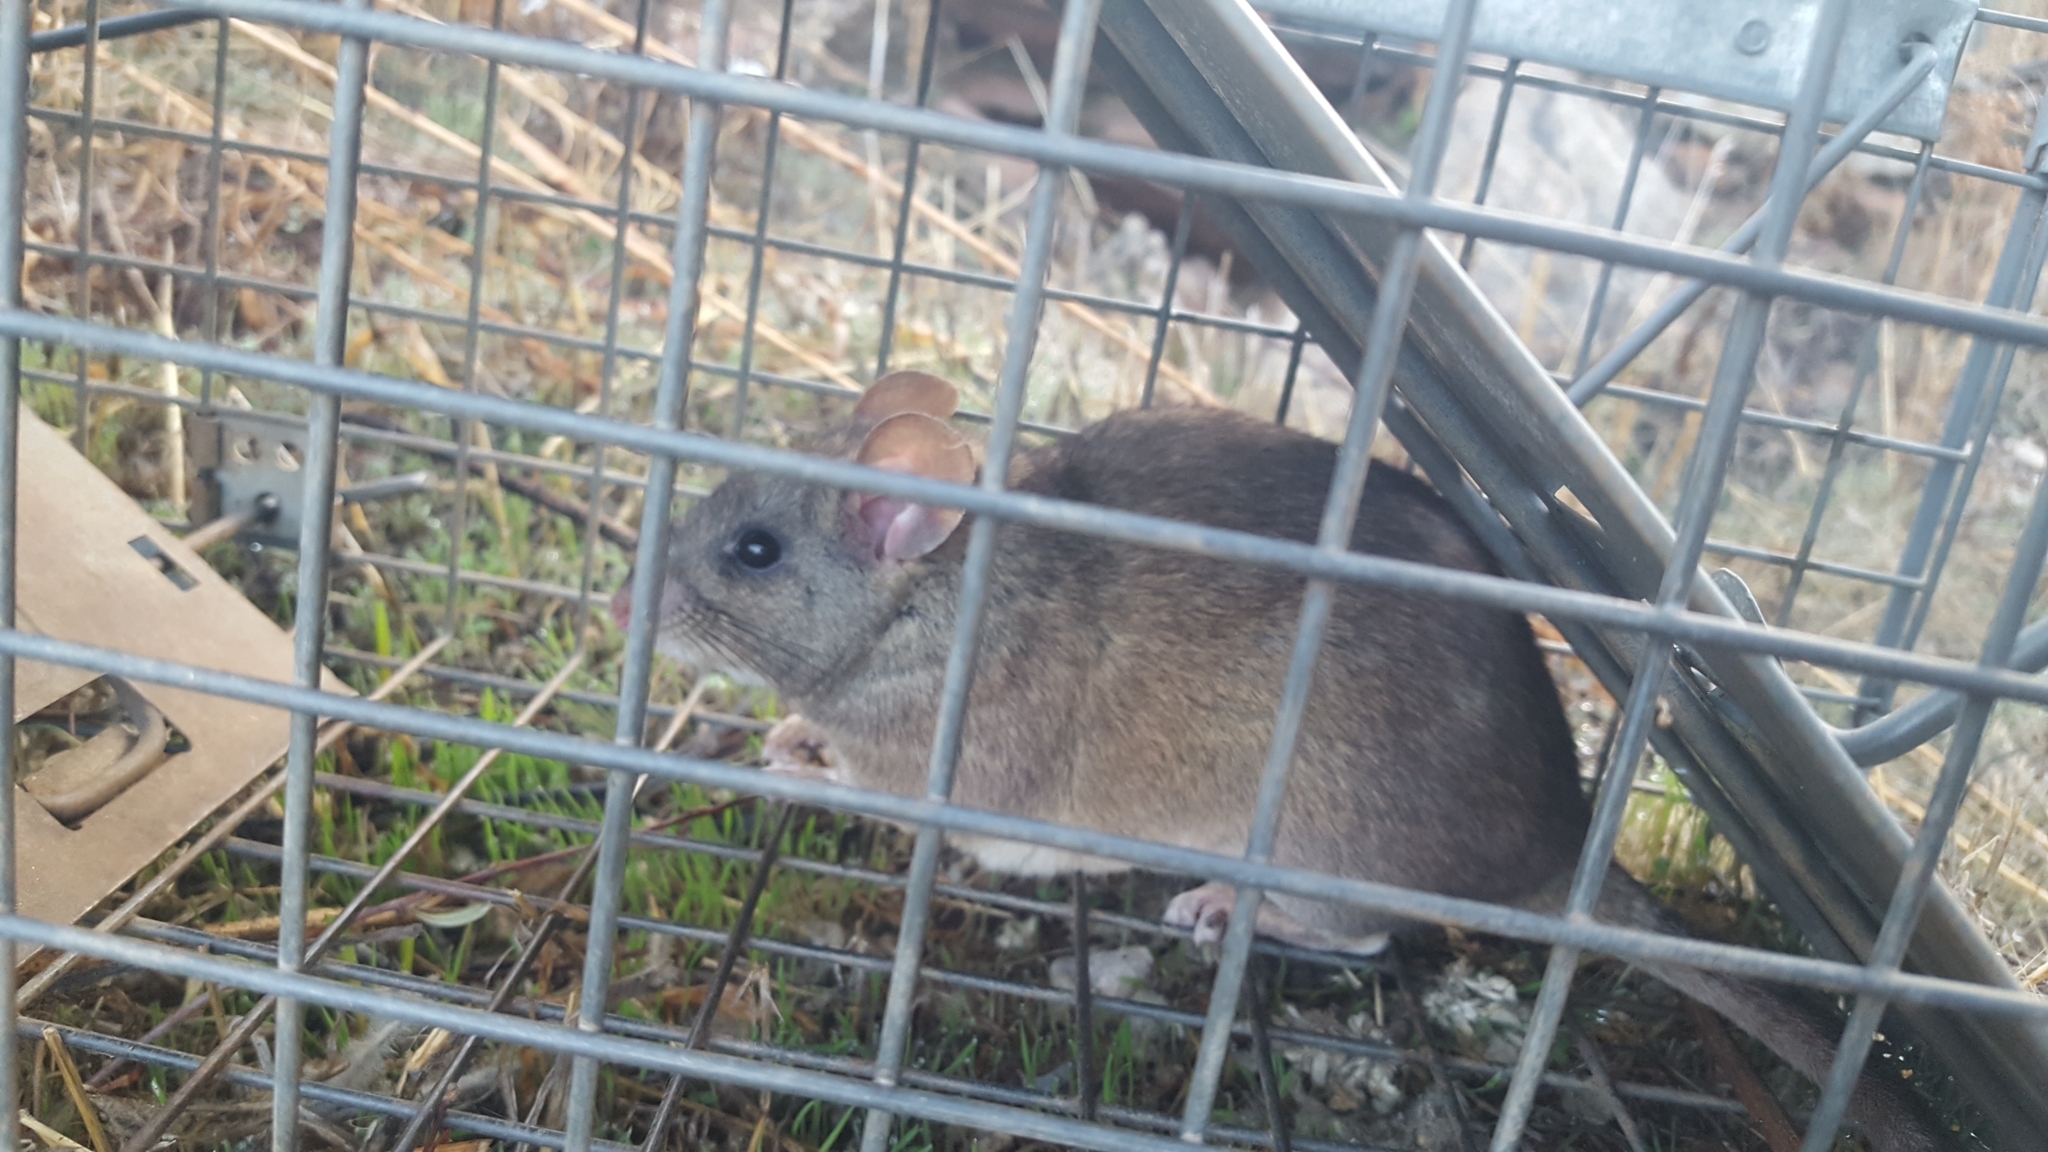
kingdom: Animalia
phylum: Chordata
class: Mammalia
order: Rodentia
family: Cricetidae
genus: Neotoma
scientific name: Neotoma fuscipes
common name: Dusky-footed woodrat
